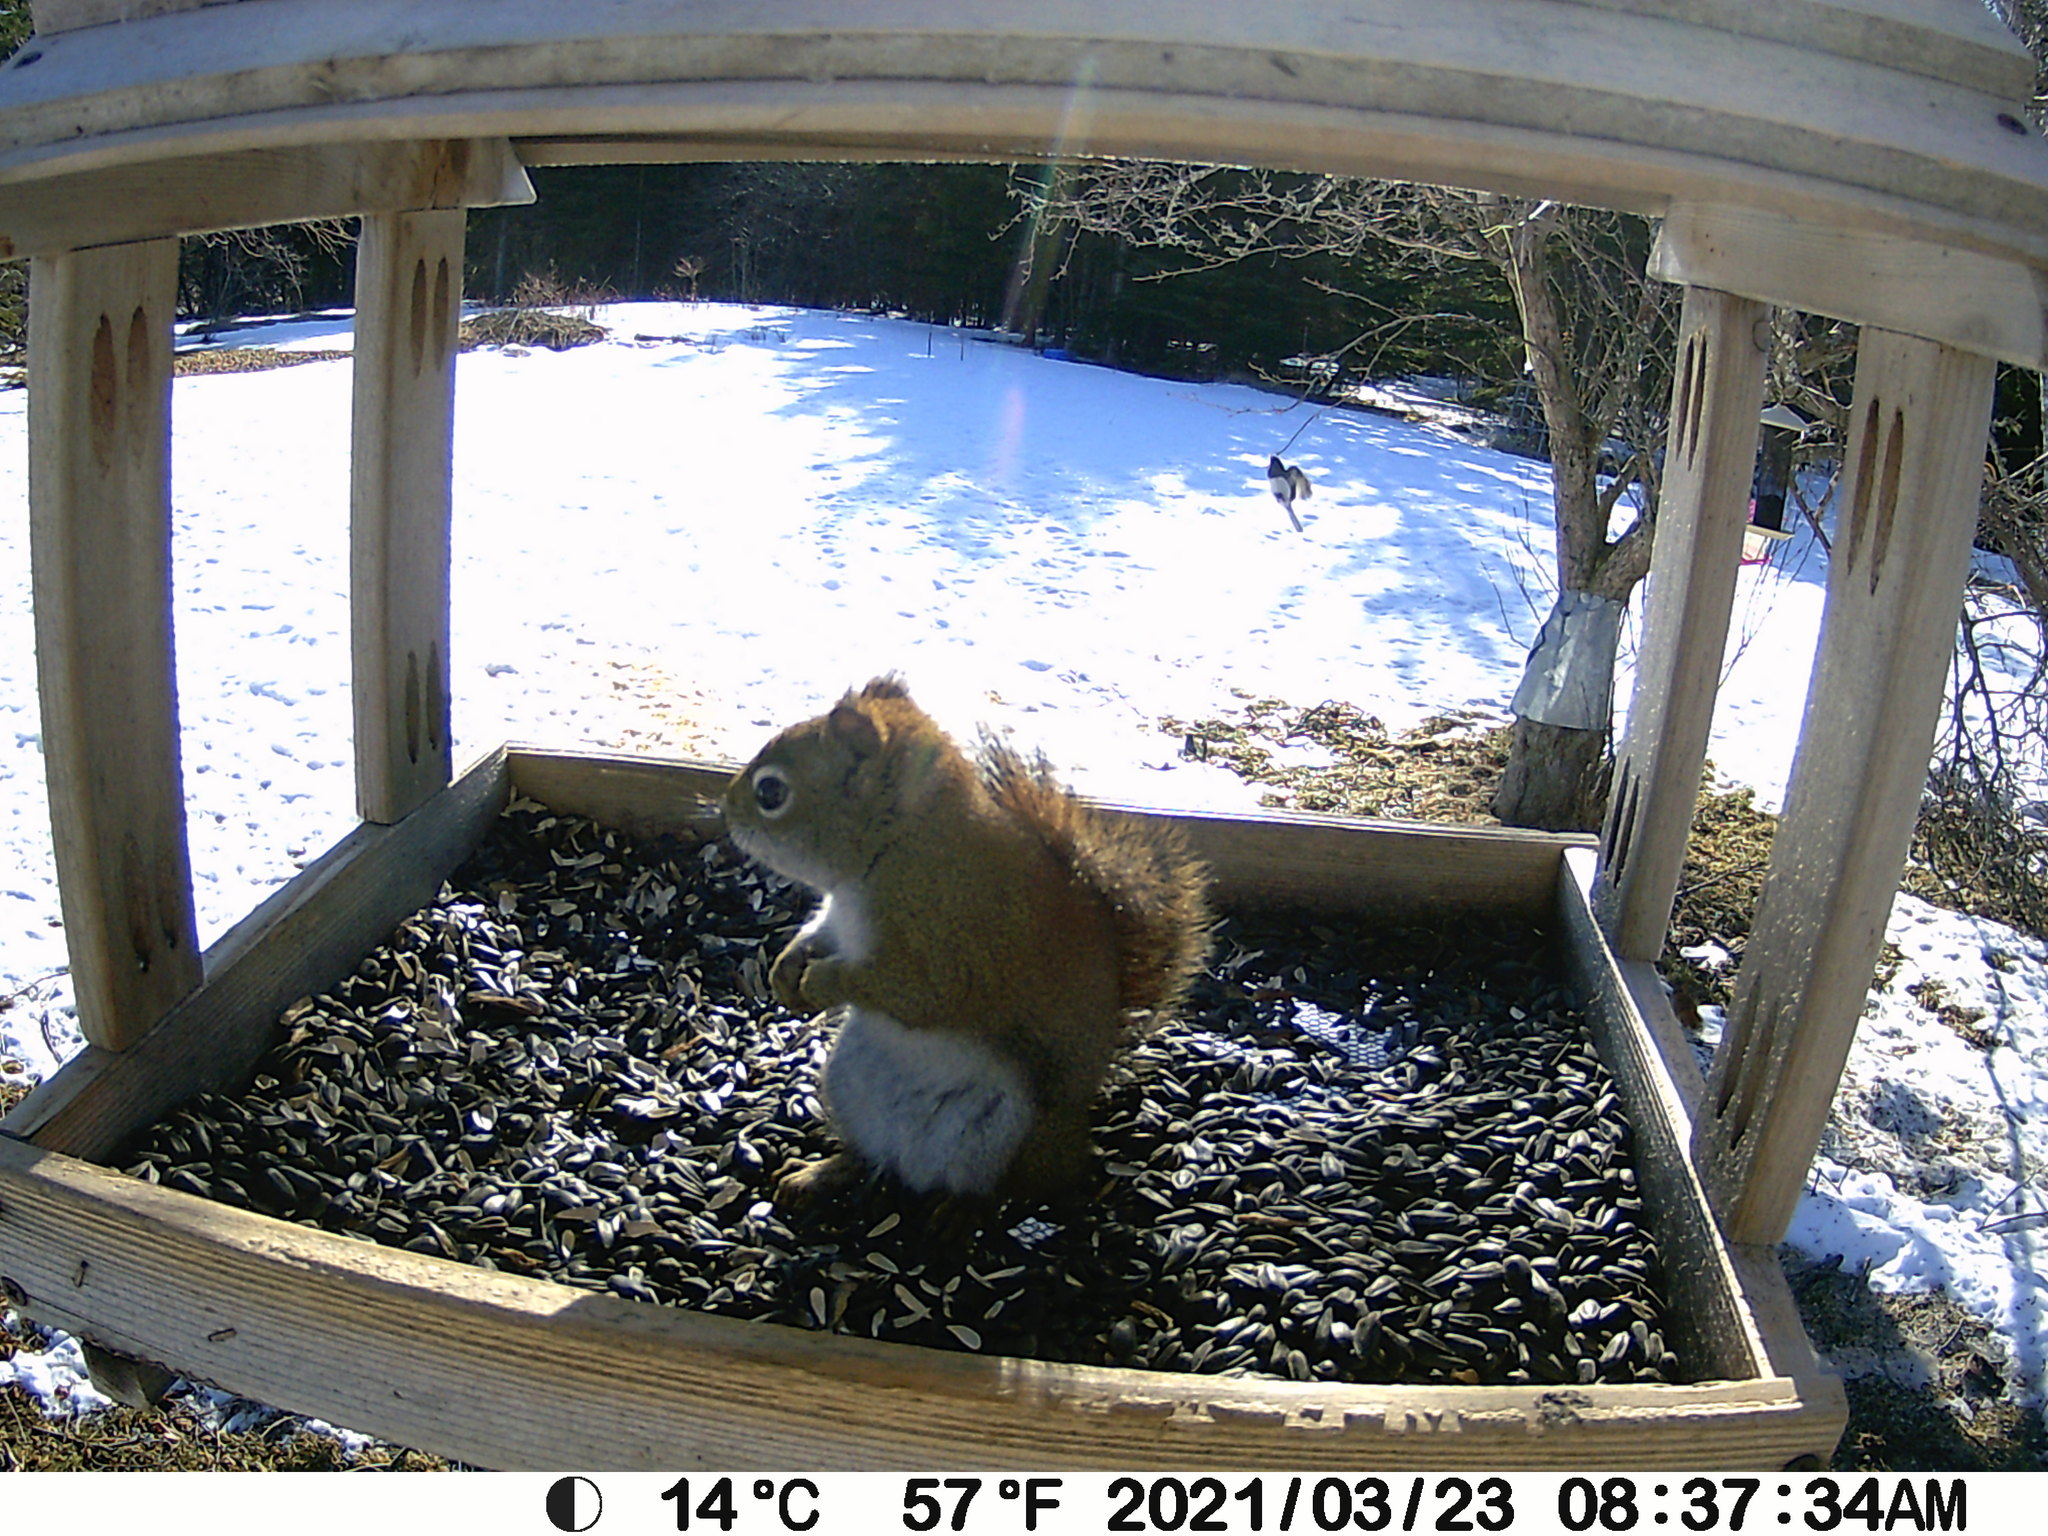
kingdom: Animalia
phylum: Chordata
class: Aves
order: Passeriformes
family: Passerellidae
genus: Junco
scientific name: Junco hyemalis
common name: Dark-eyed junco
